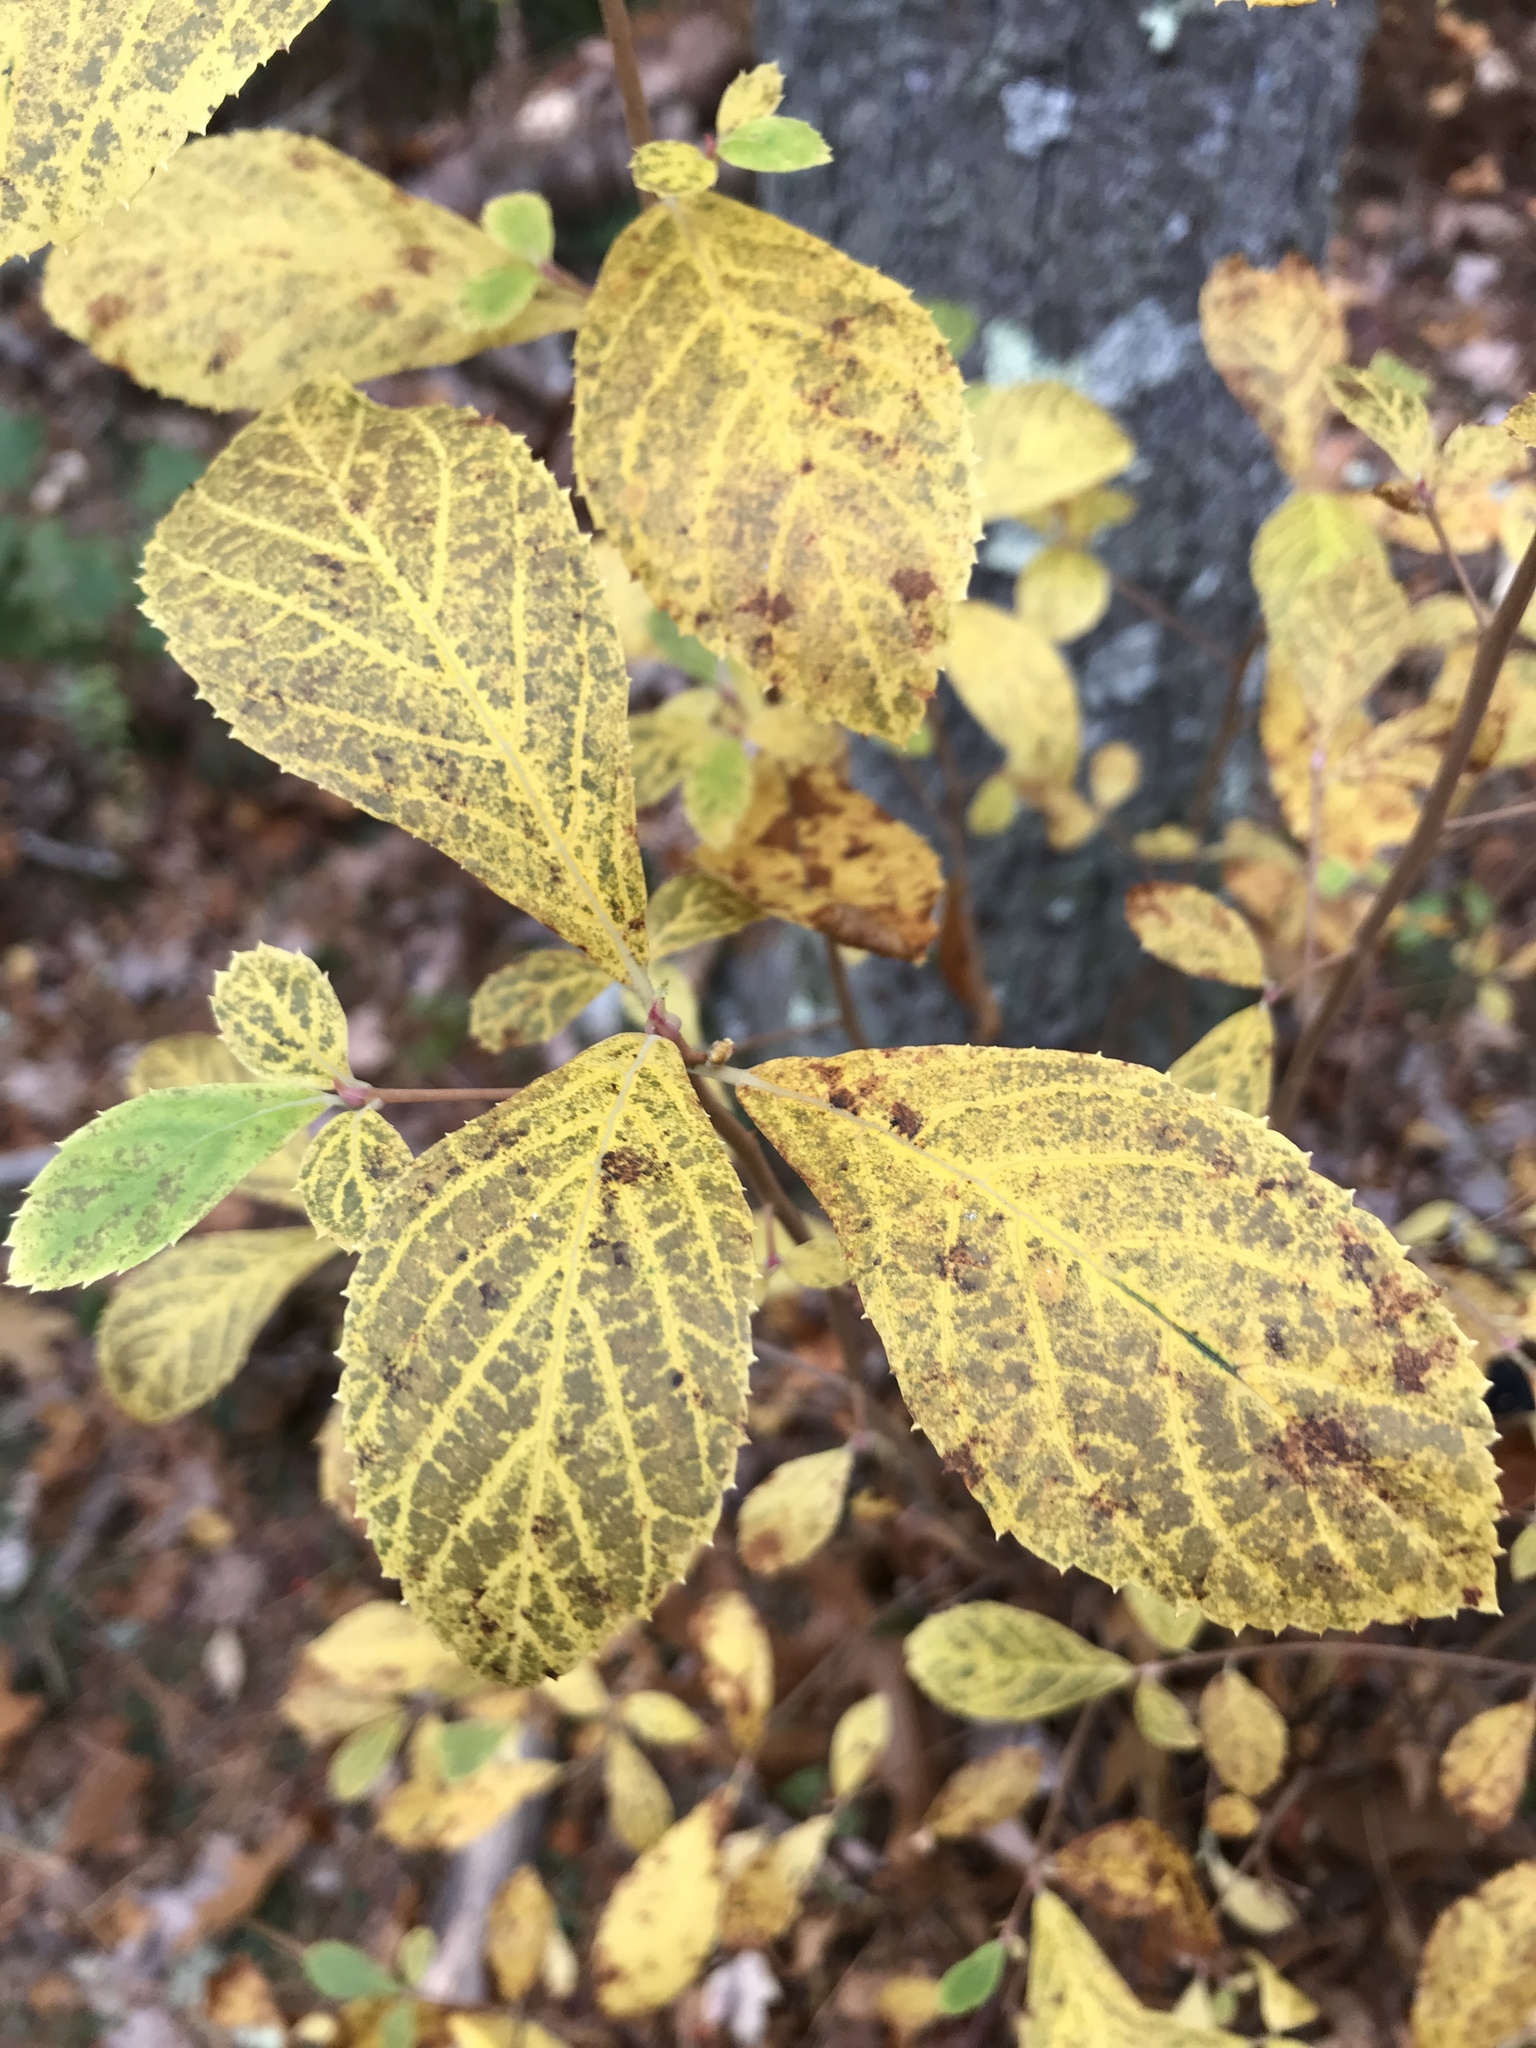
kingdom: Plantae
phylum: Tracheophyta
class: Magnoliopsida
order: Ericales
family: Clethraceae
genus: Clethra
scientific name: Clethra alnifolia
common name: Sweet pepperbush
